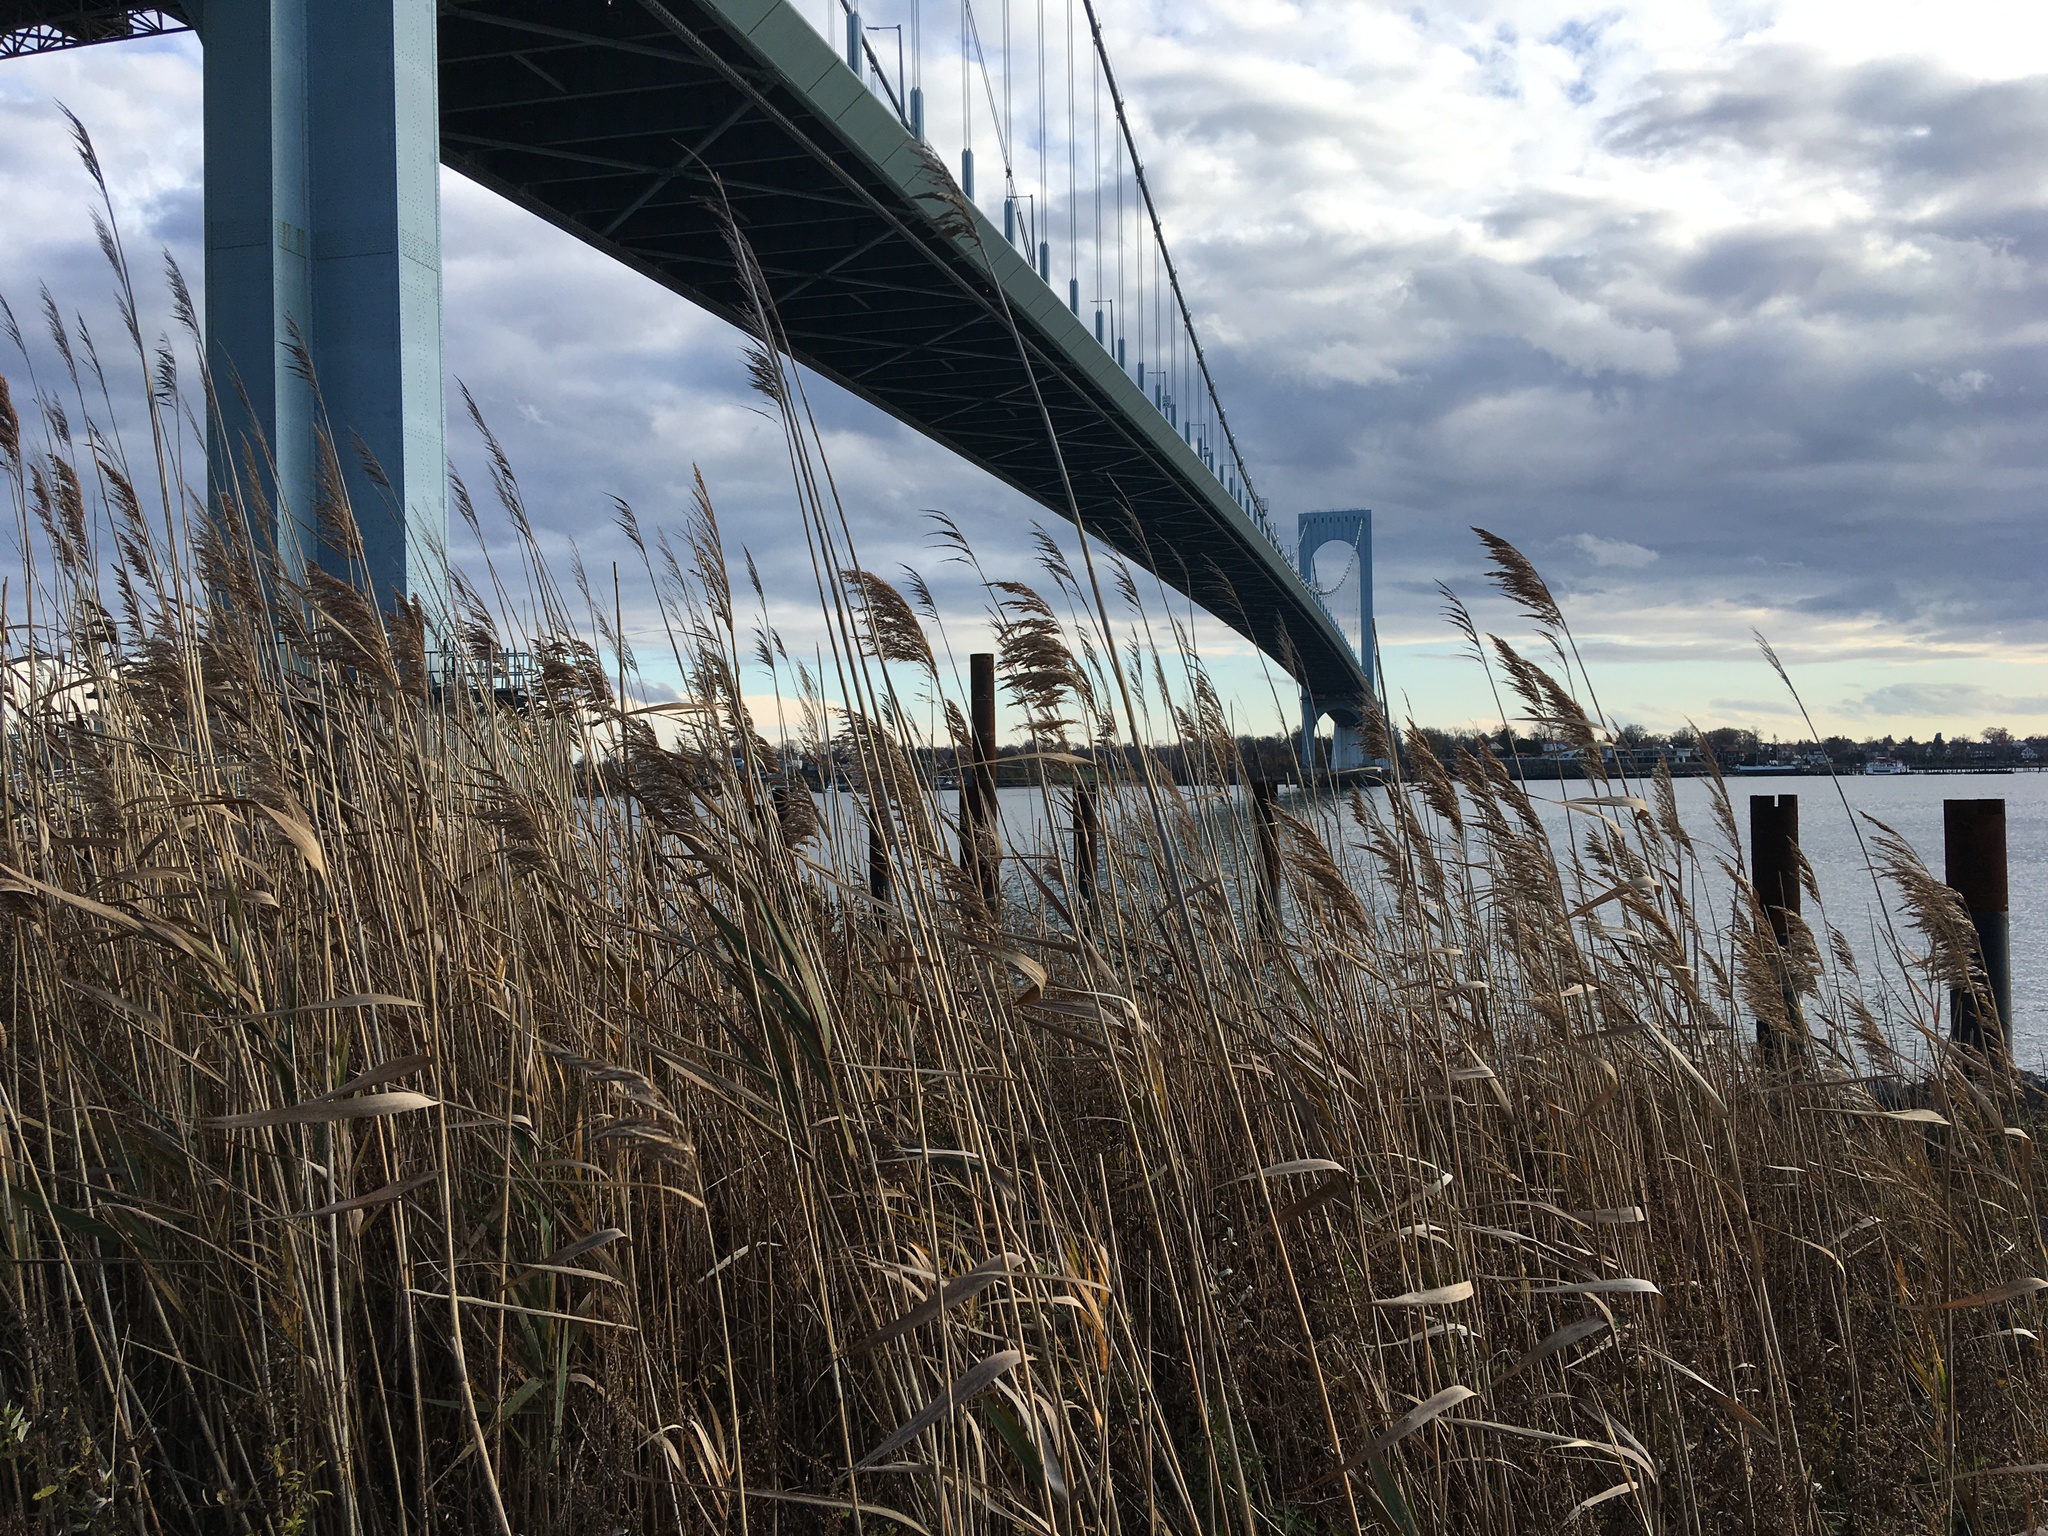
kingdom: Plantae
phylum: Tracheophyta
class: Liliopsida
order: Poales
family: Poaceae
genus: Phragmites
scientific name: Phragmites australis
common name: Common reed
